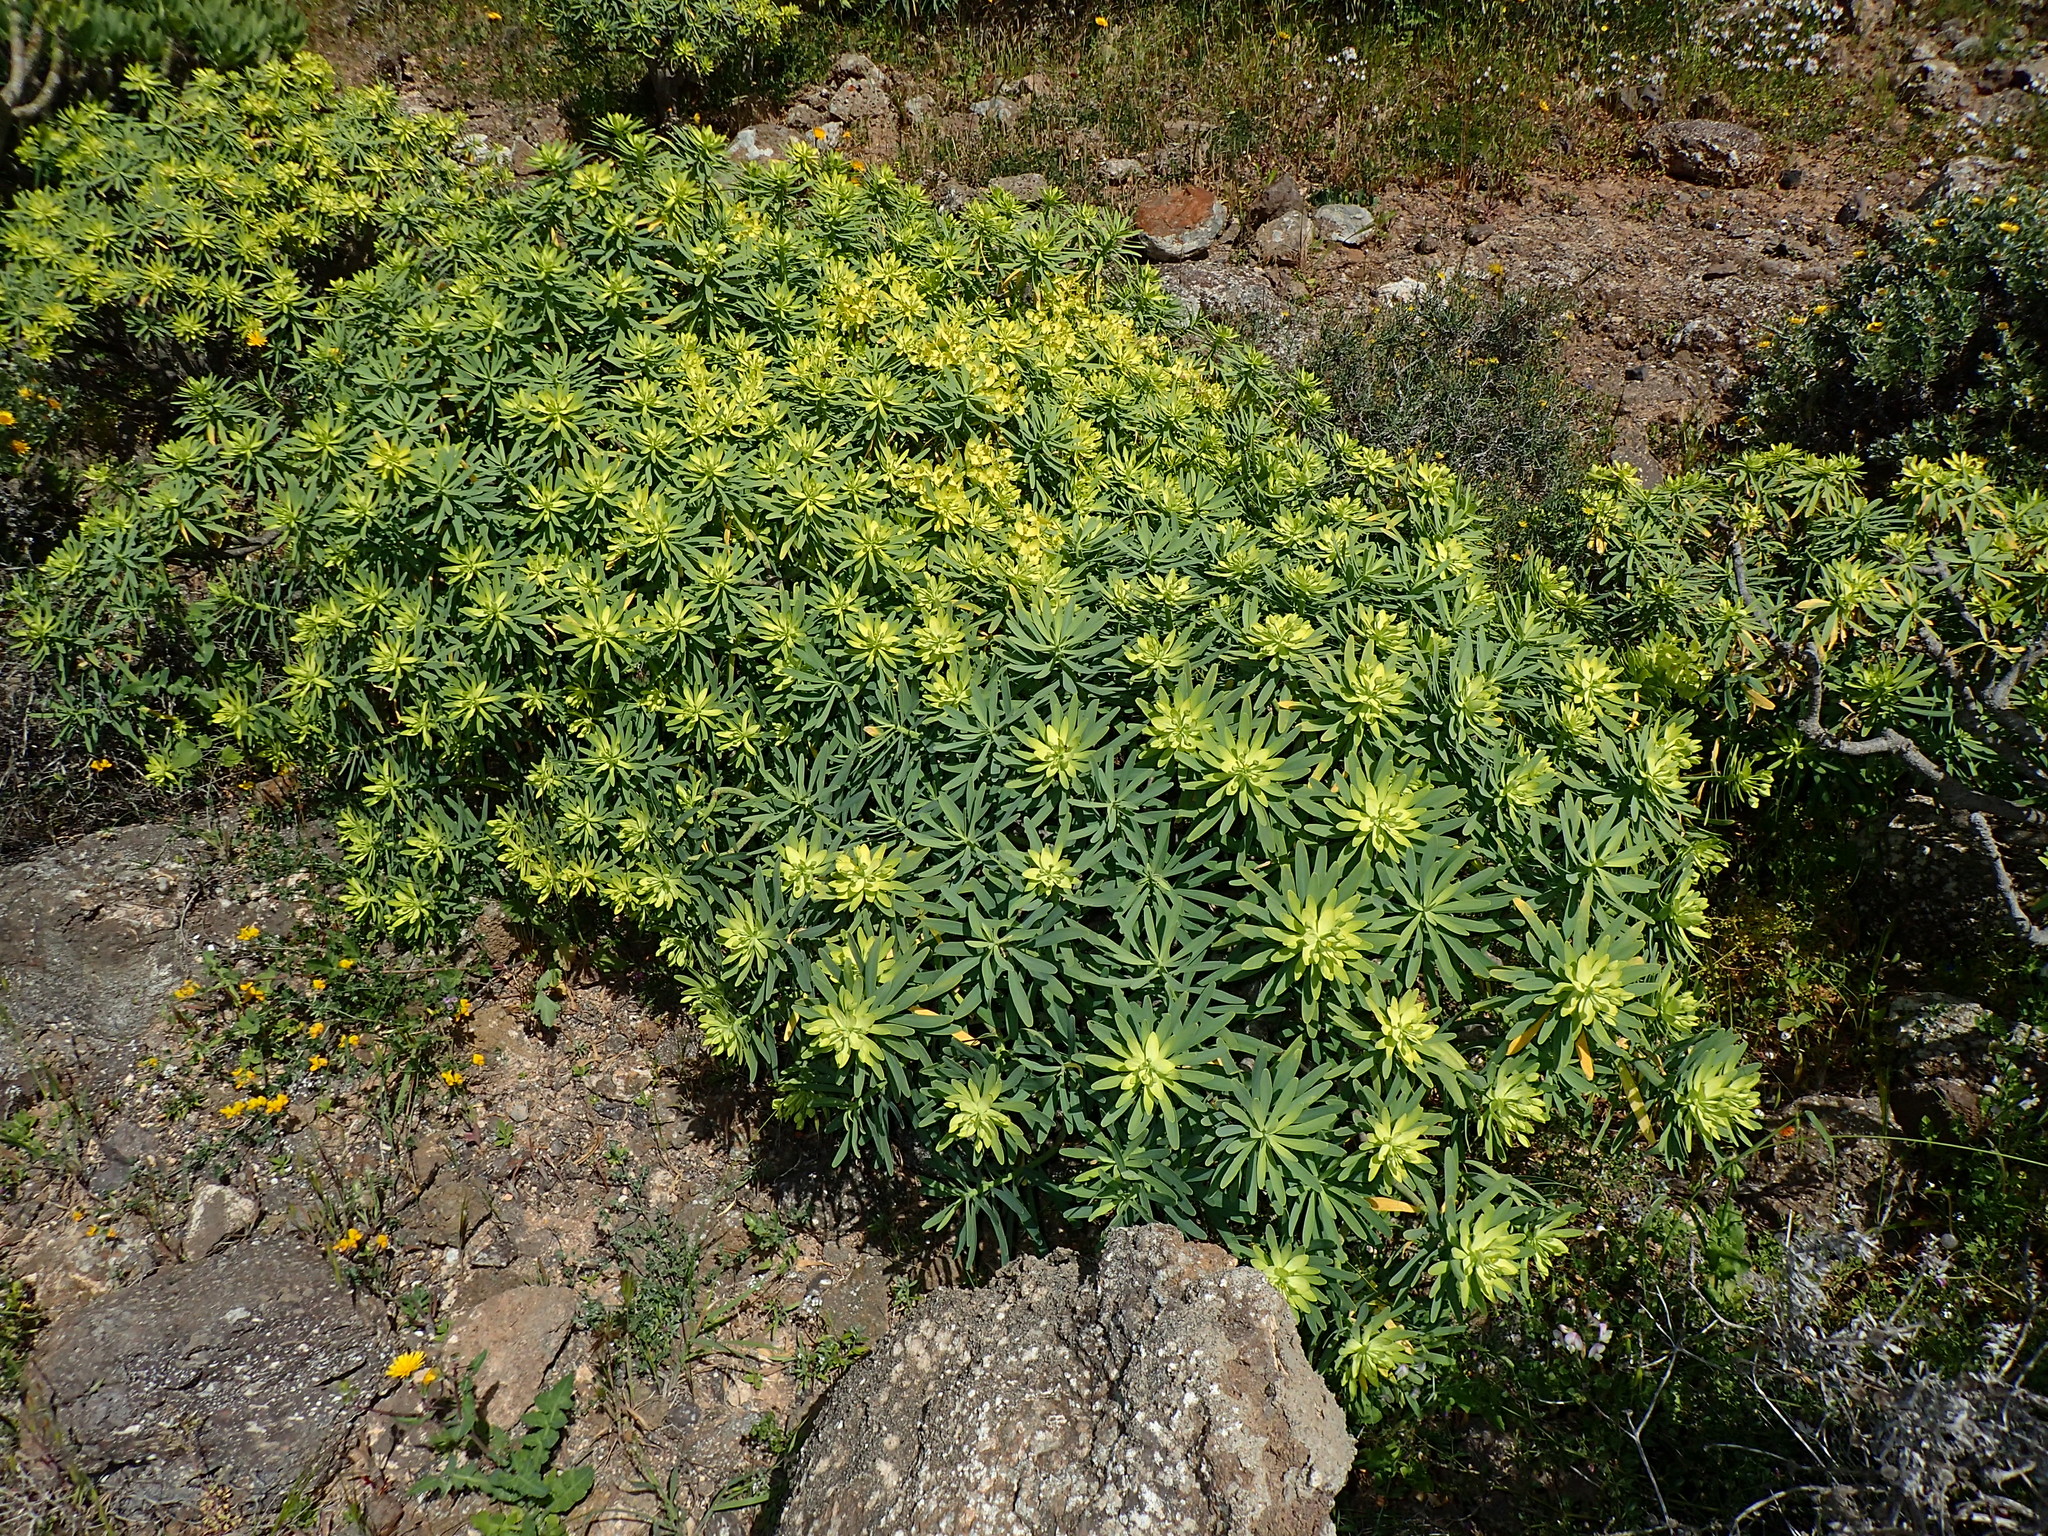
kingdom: Plantae
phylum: Tracheophyta
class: Magnoliopsida
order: Malpighiales
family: Euphorbiaceae
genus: Euphorbia
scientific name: Euphorbia regis-jubae
